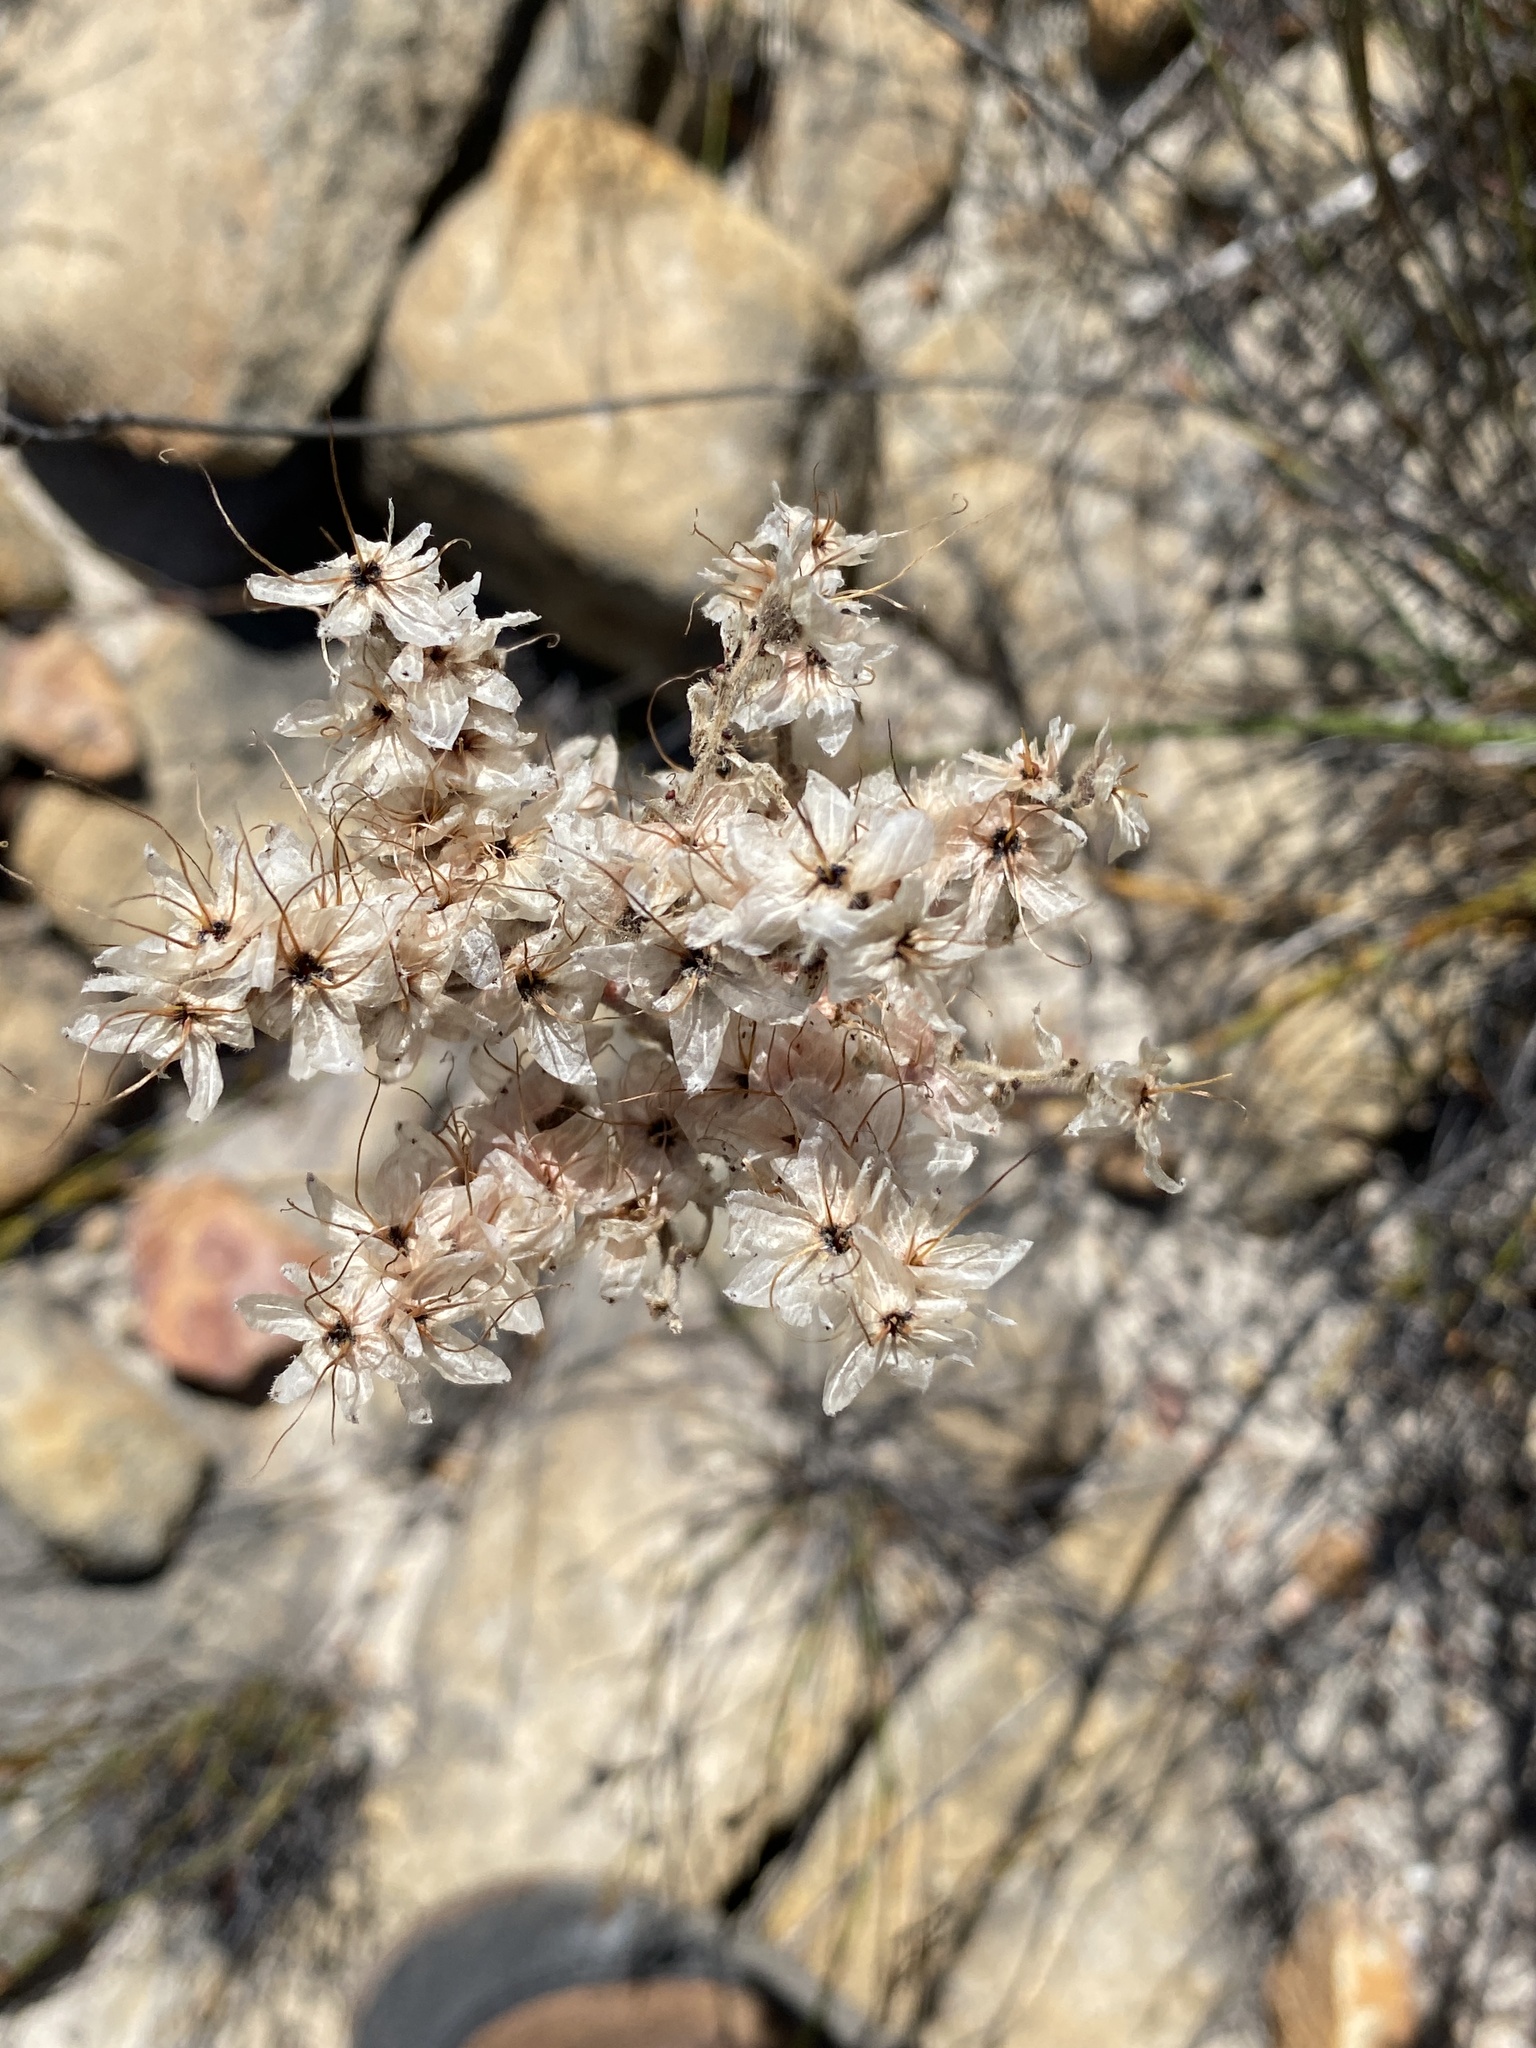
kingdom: Plantae
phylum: Tracheophyta
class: Liliopsida
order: Commelinales
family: Haemodoraceae
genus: Dilatris
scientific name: Dilatris ixioides
